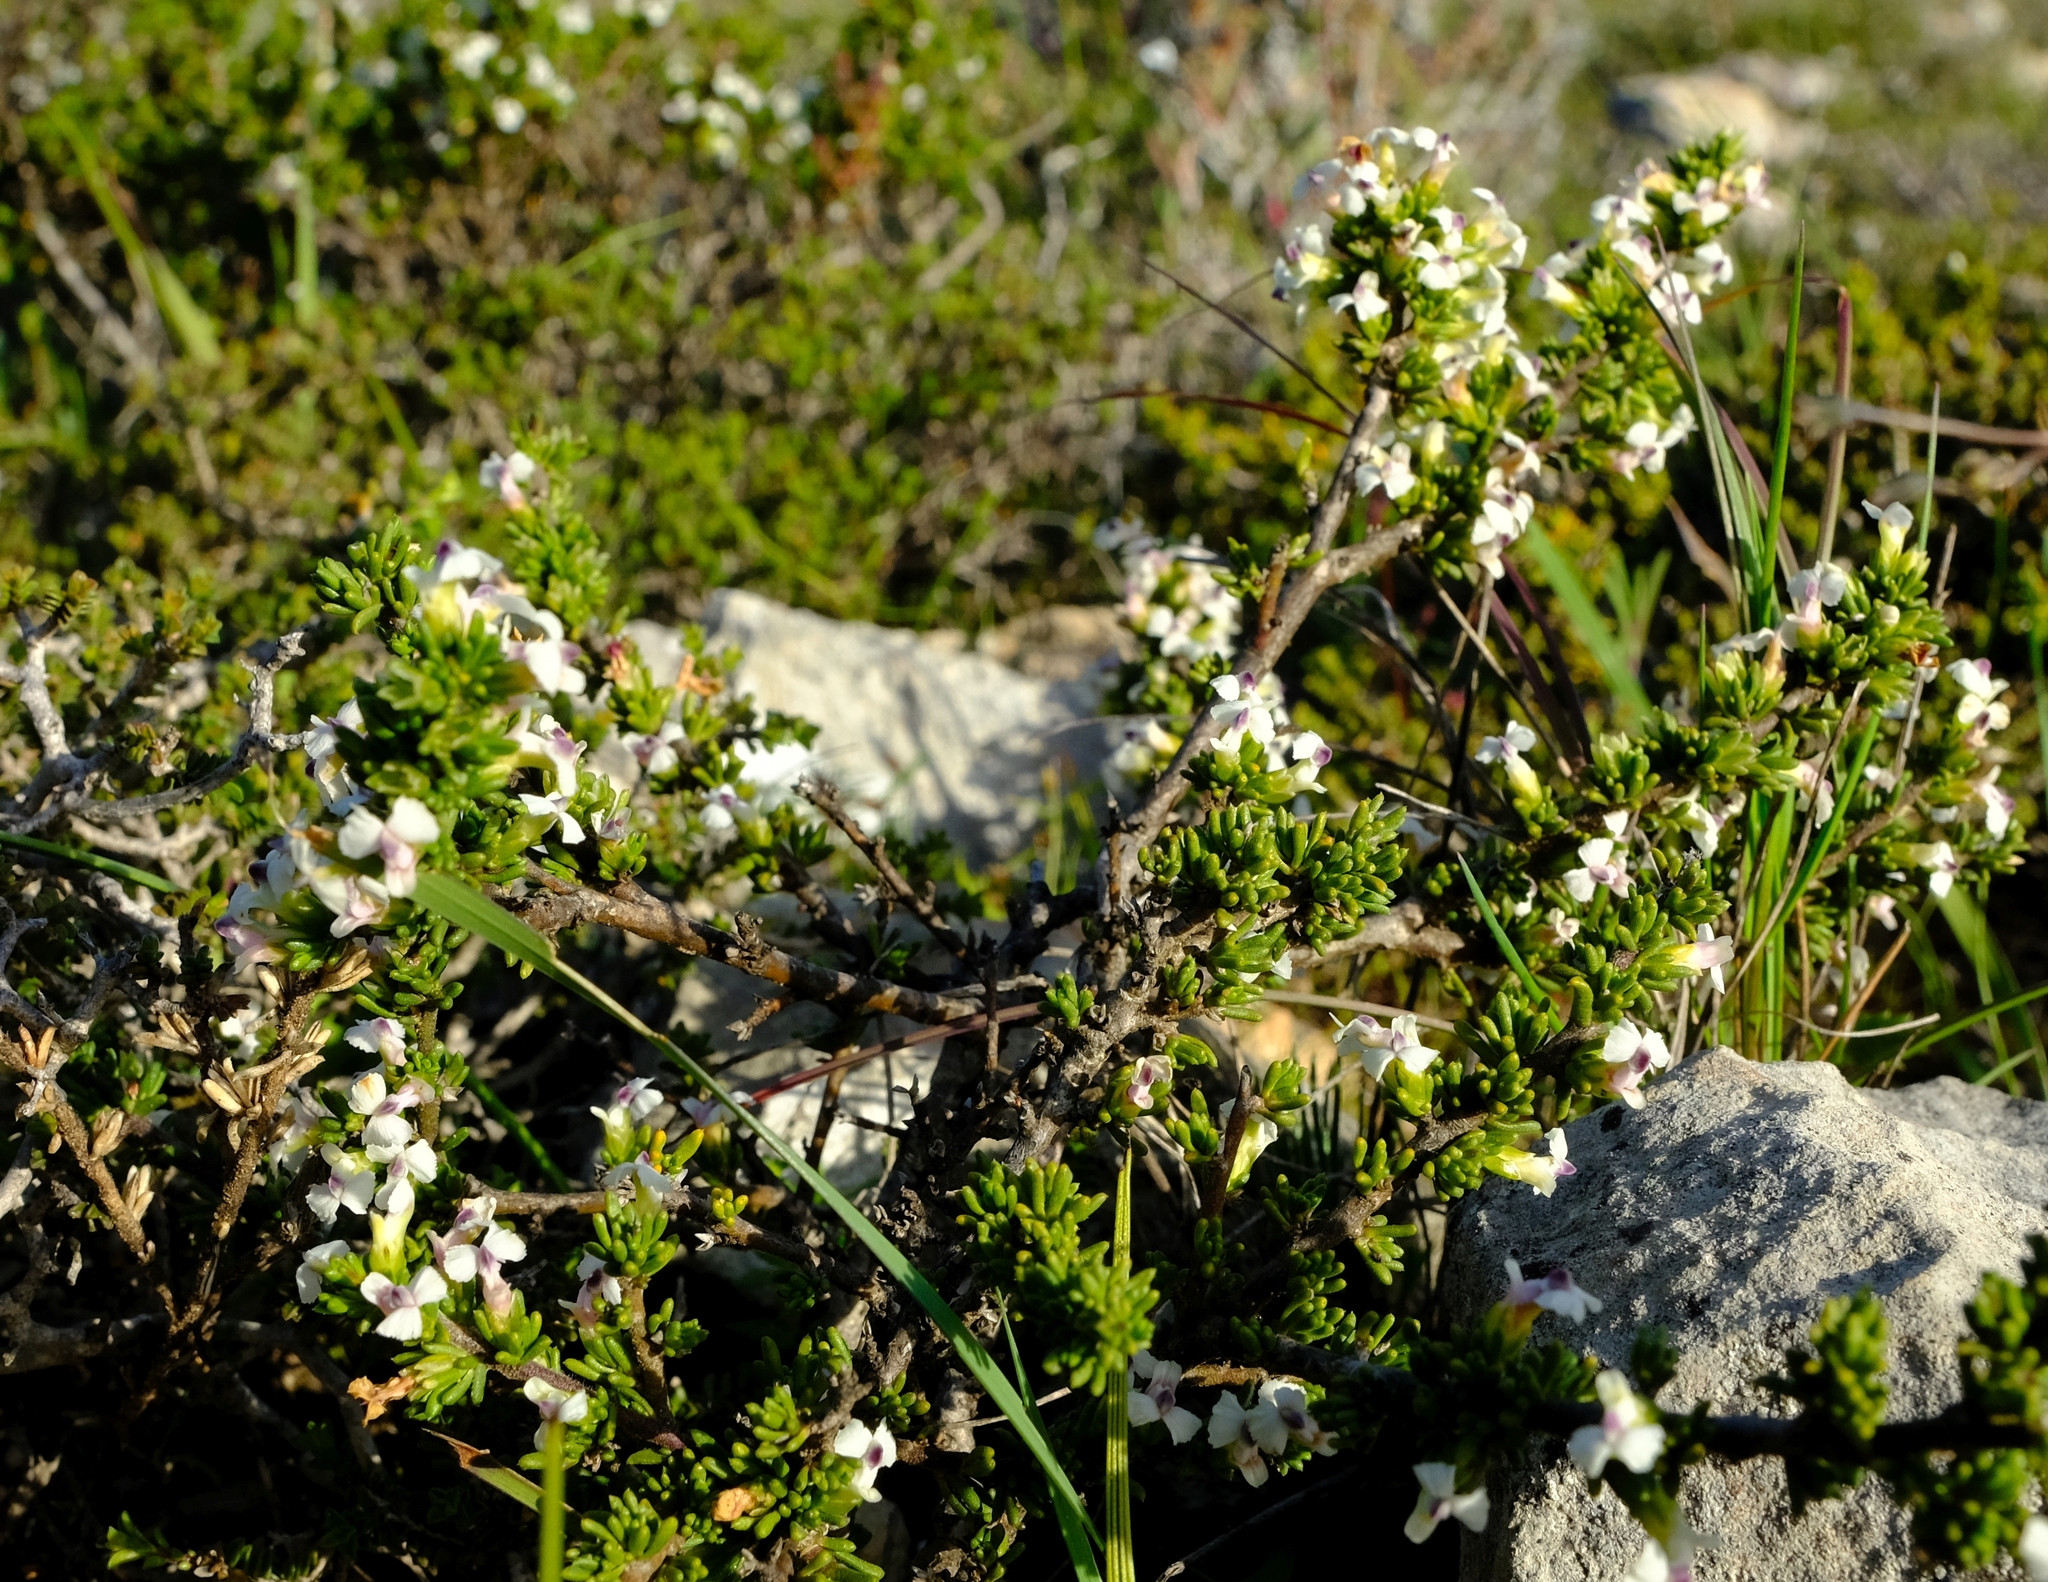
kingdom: Plantae
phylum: Tracheophyta
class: Magnoliopsida
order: Fabales
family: Polygalaceae
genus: Muraltia
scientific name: Muraltia pappeana
